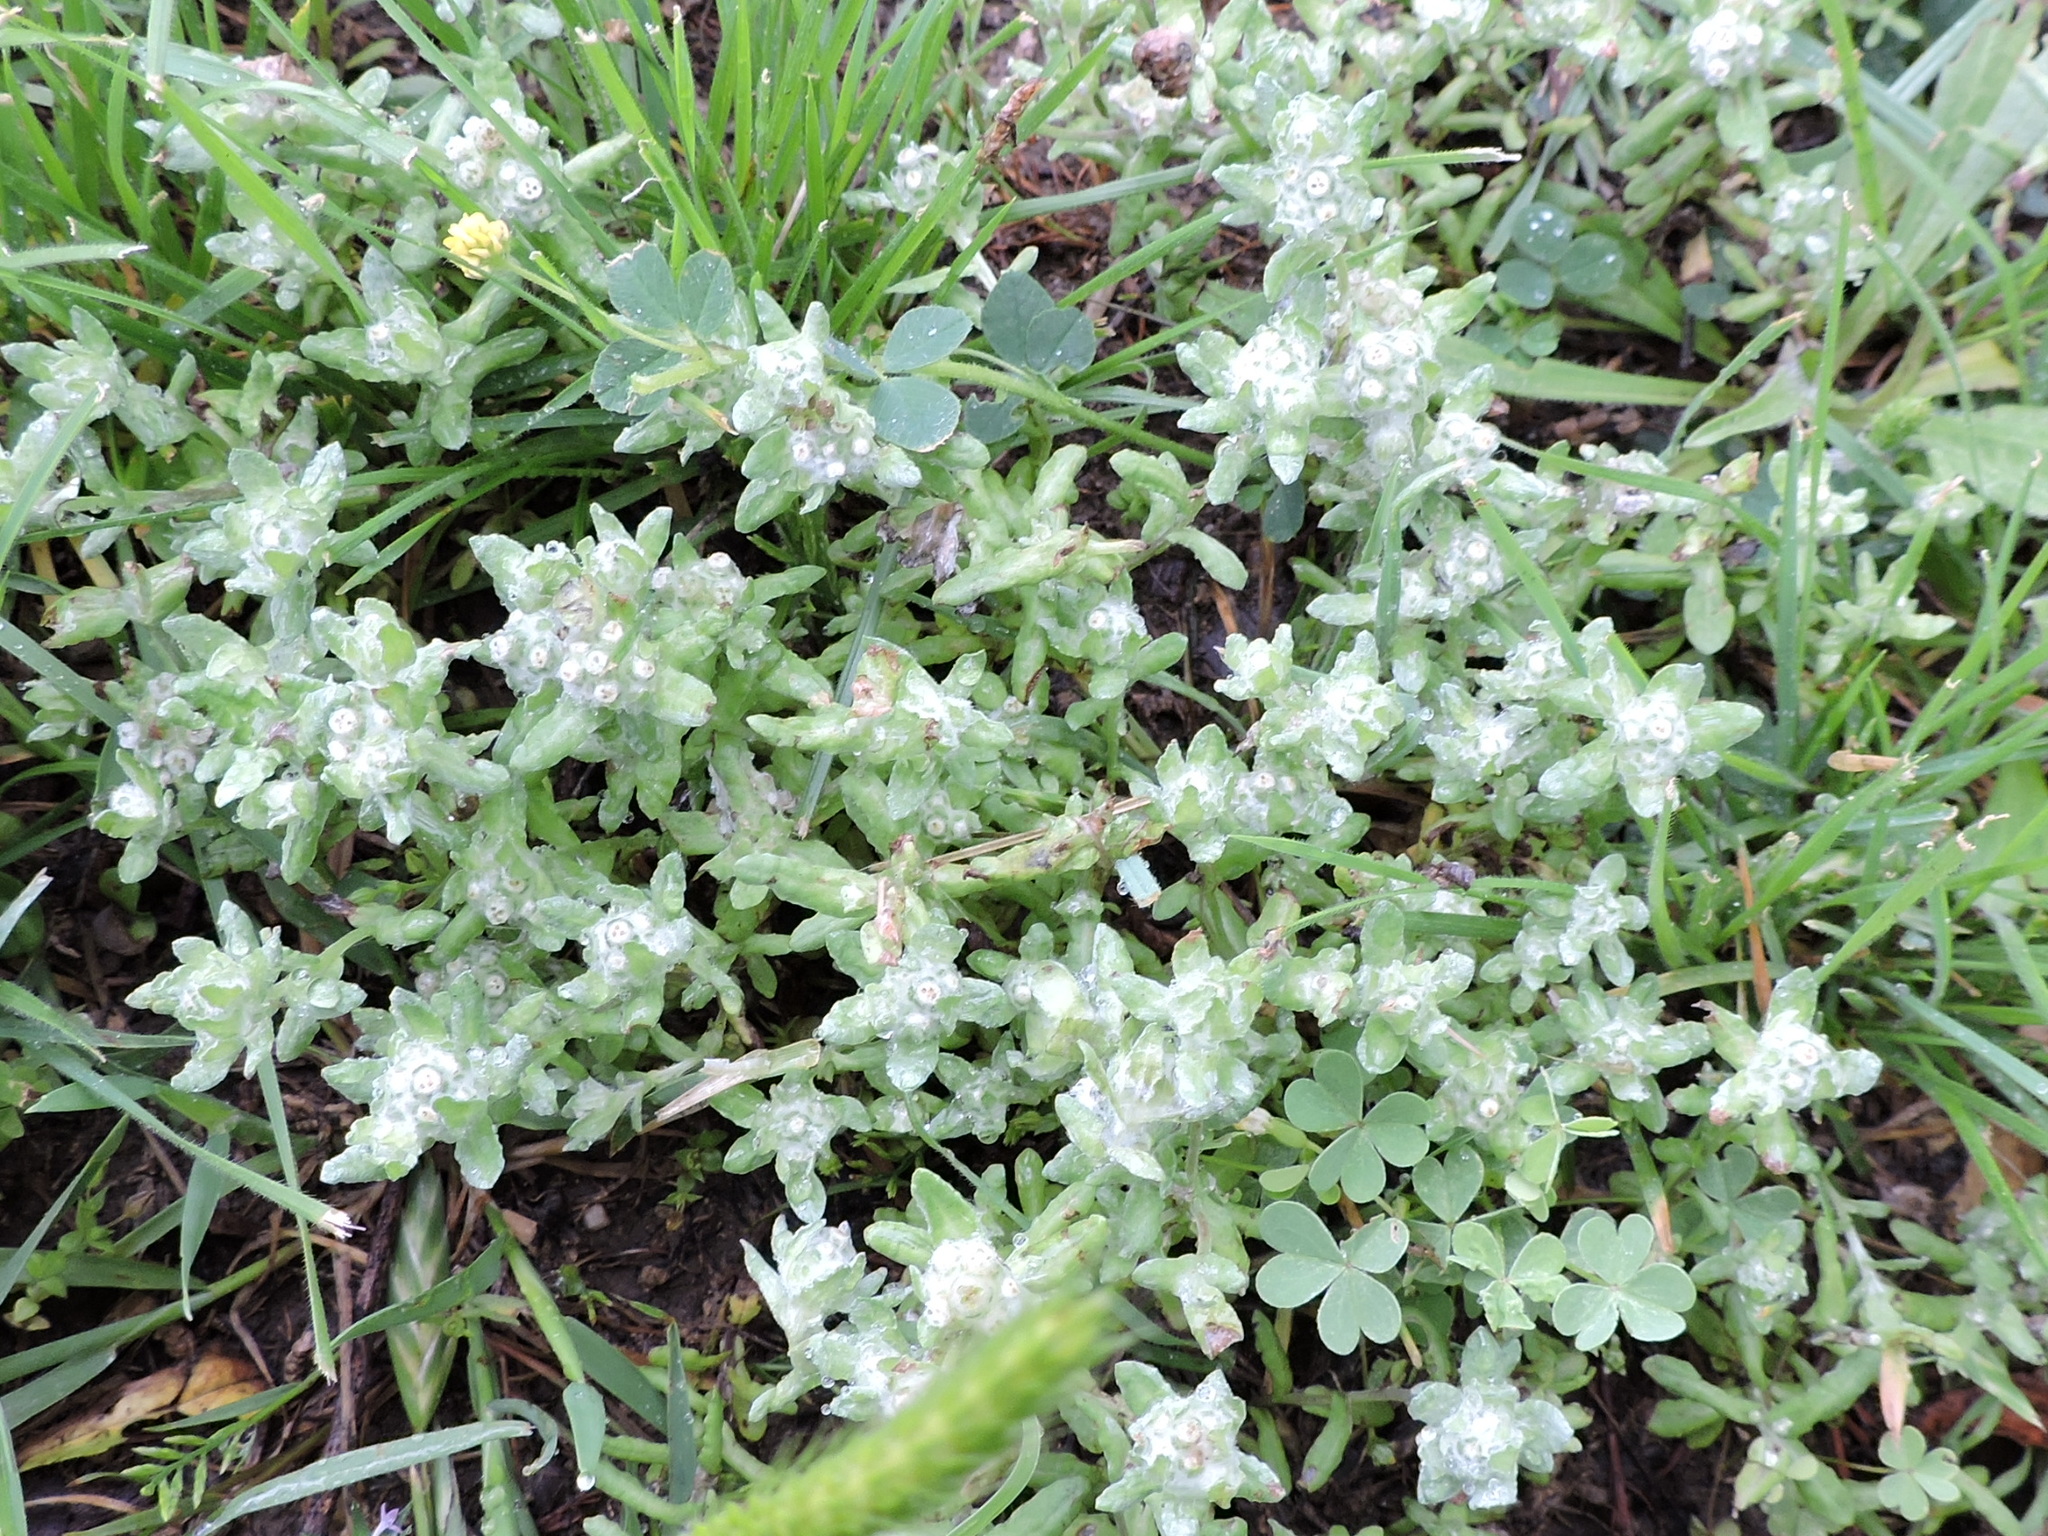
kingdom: Plantae
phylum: Tracheophyta
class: Magnoliopsida
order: Asterales
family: Asteraceae
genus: Diaperia
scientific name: Diaperia verna
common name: Many-stem rabbit-tobacco
